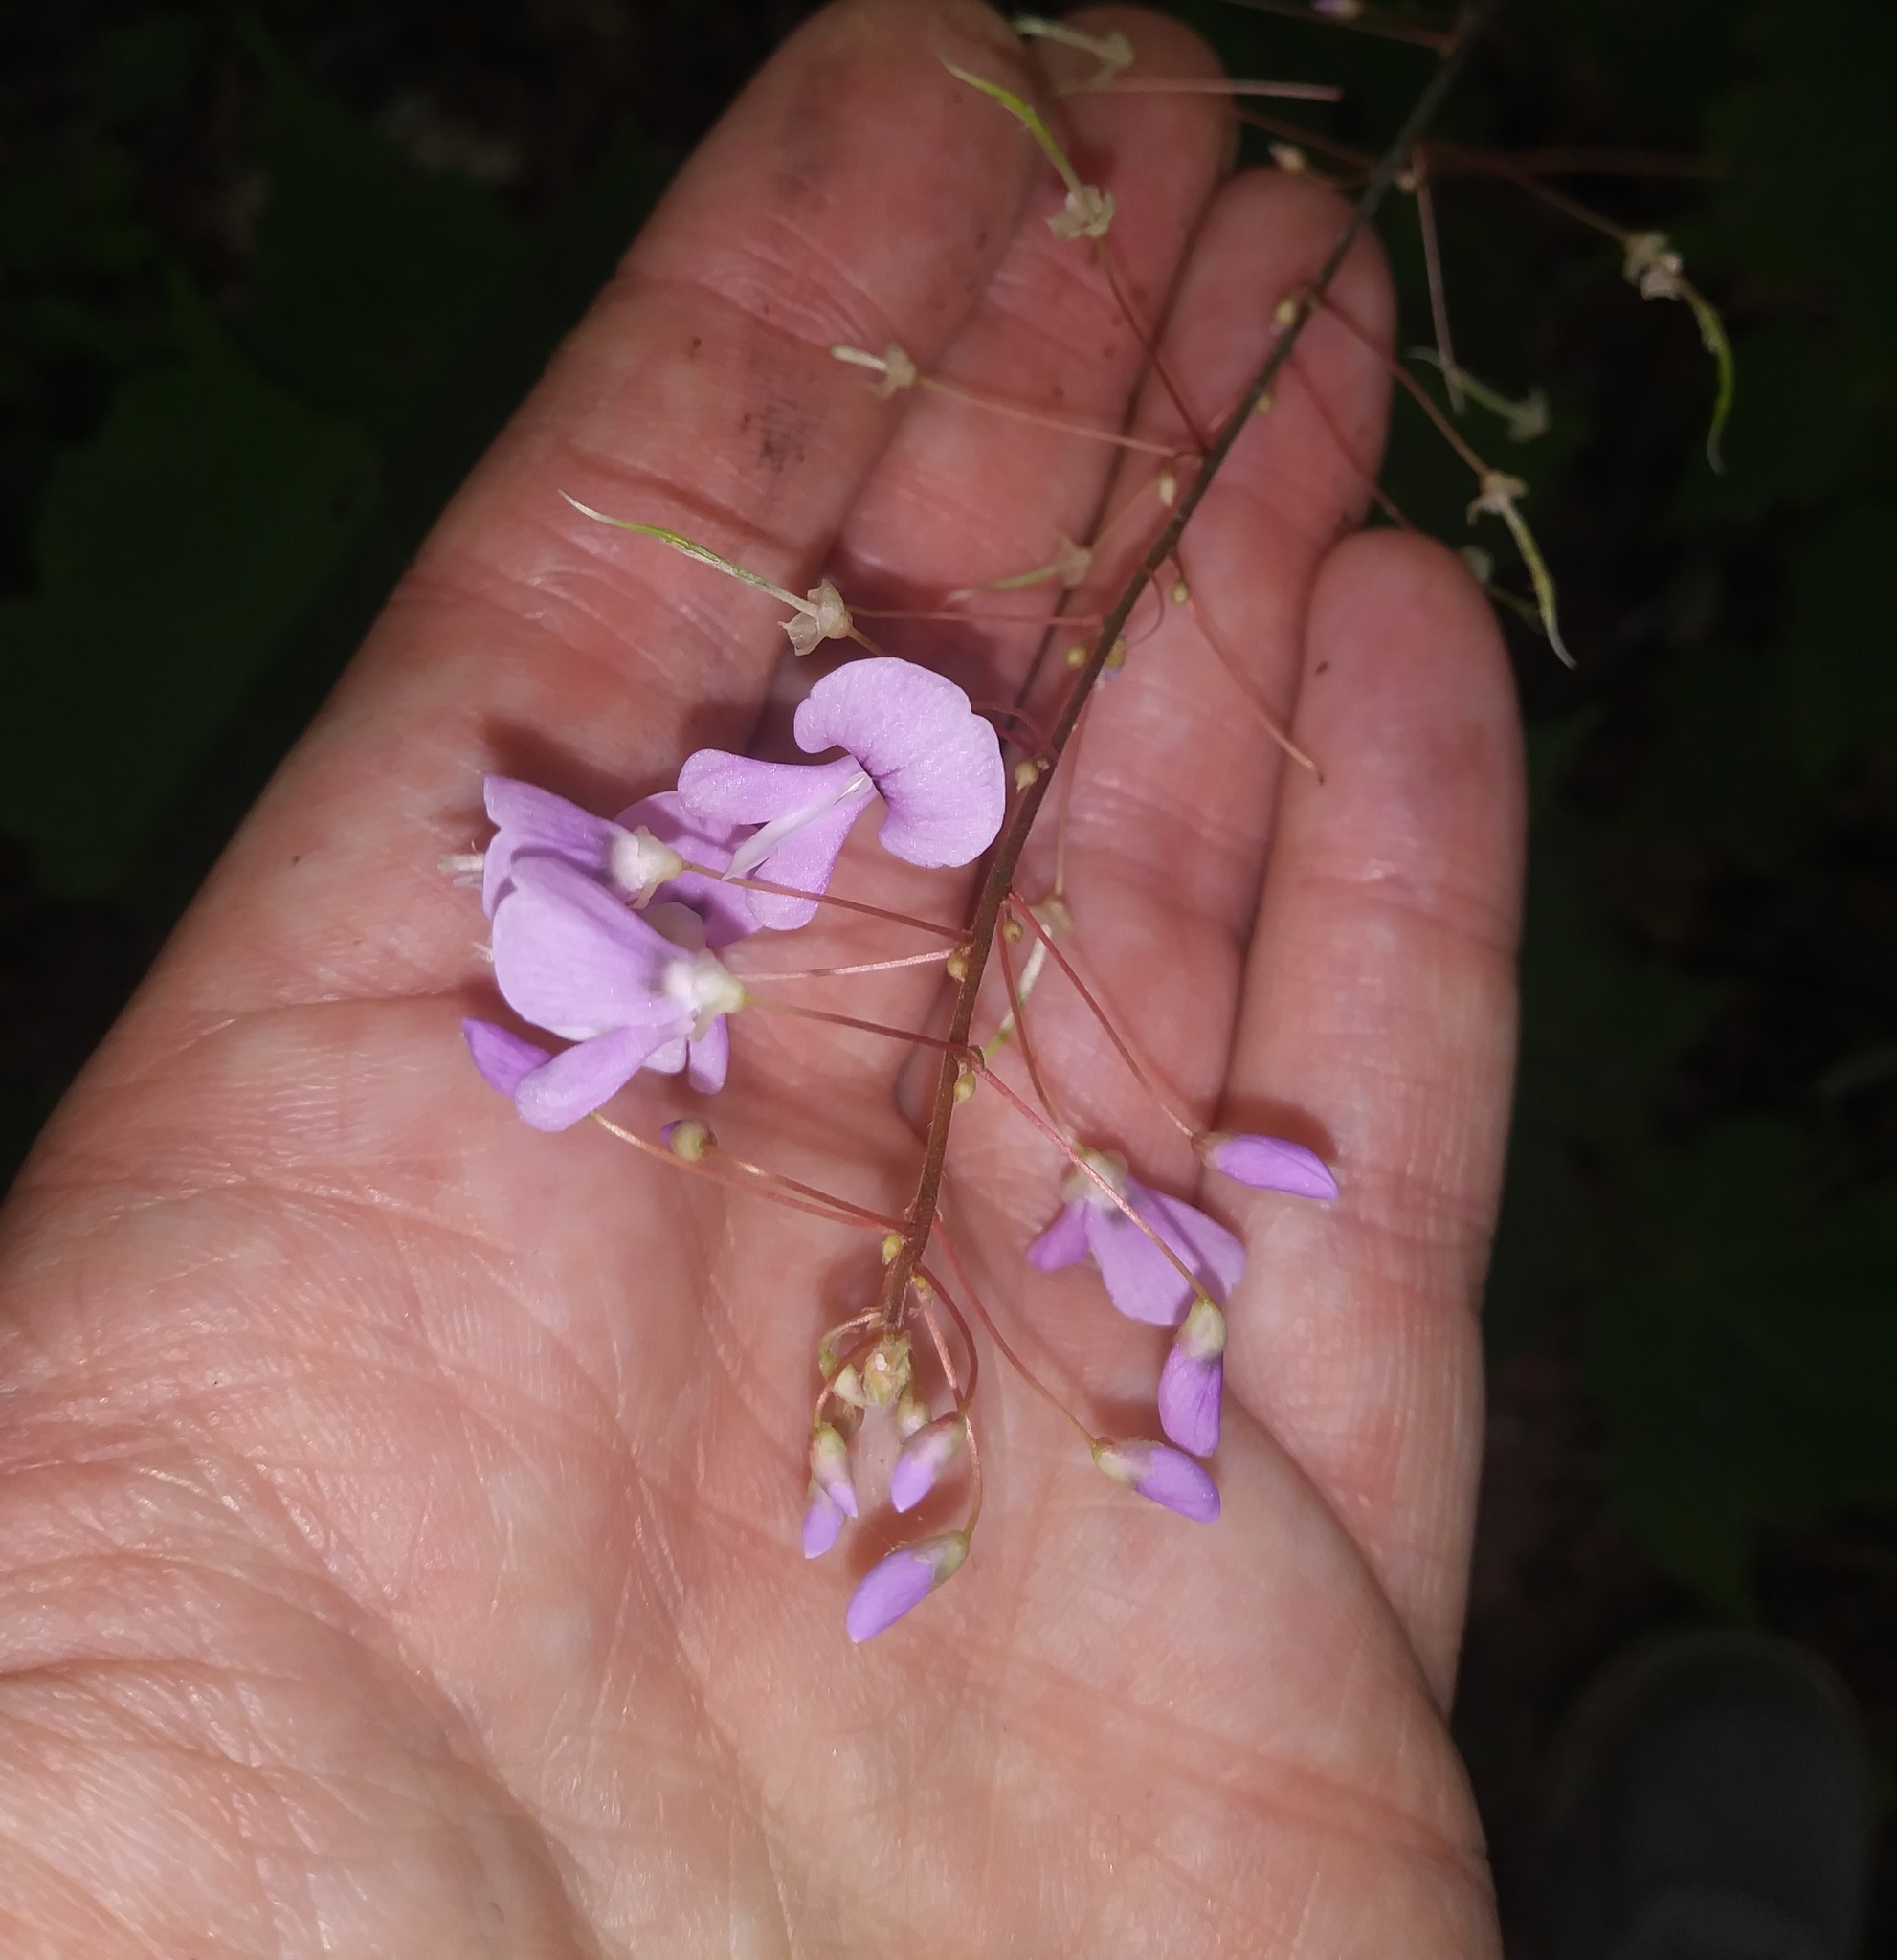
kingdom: Plantae
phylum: Tracheophyta
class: Magnoliopsida
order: Fabales
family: Fabaceae
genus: Hylodesmum
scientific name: Hylodesmum nudiflorum
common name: Bare-stemmed tick-trefoil
